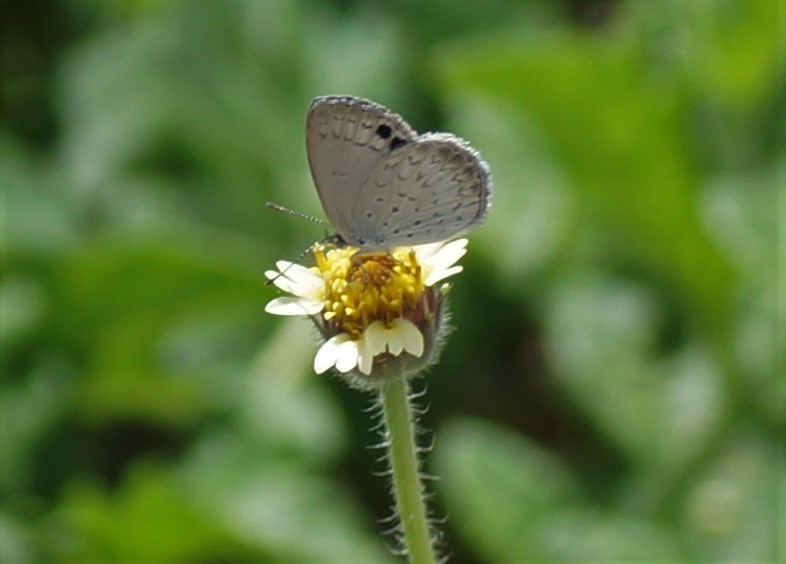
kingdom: Animalia
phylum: Arthropoda
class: Insecta
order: Lepidoptera
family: Lycaenidae
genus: Candalides
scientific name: Candalides
